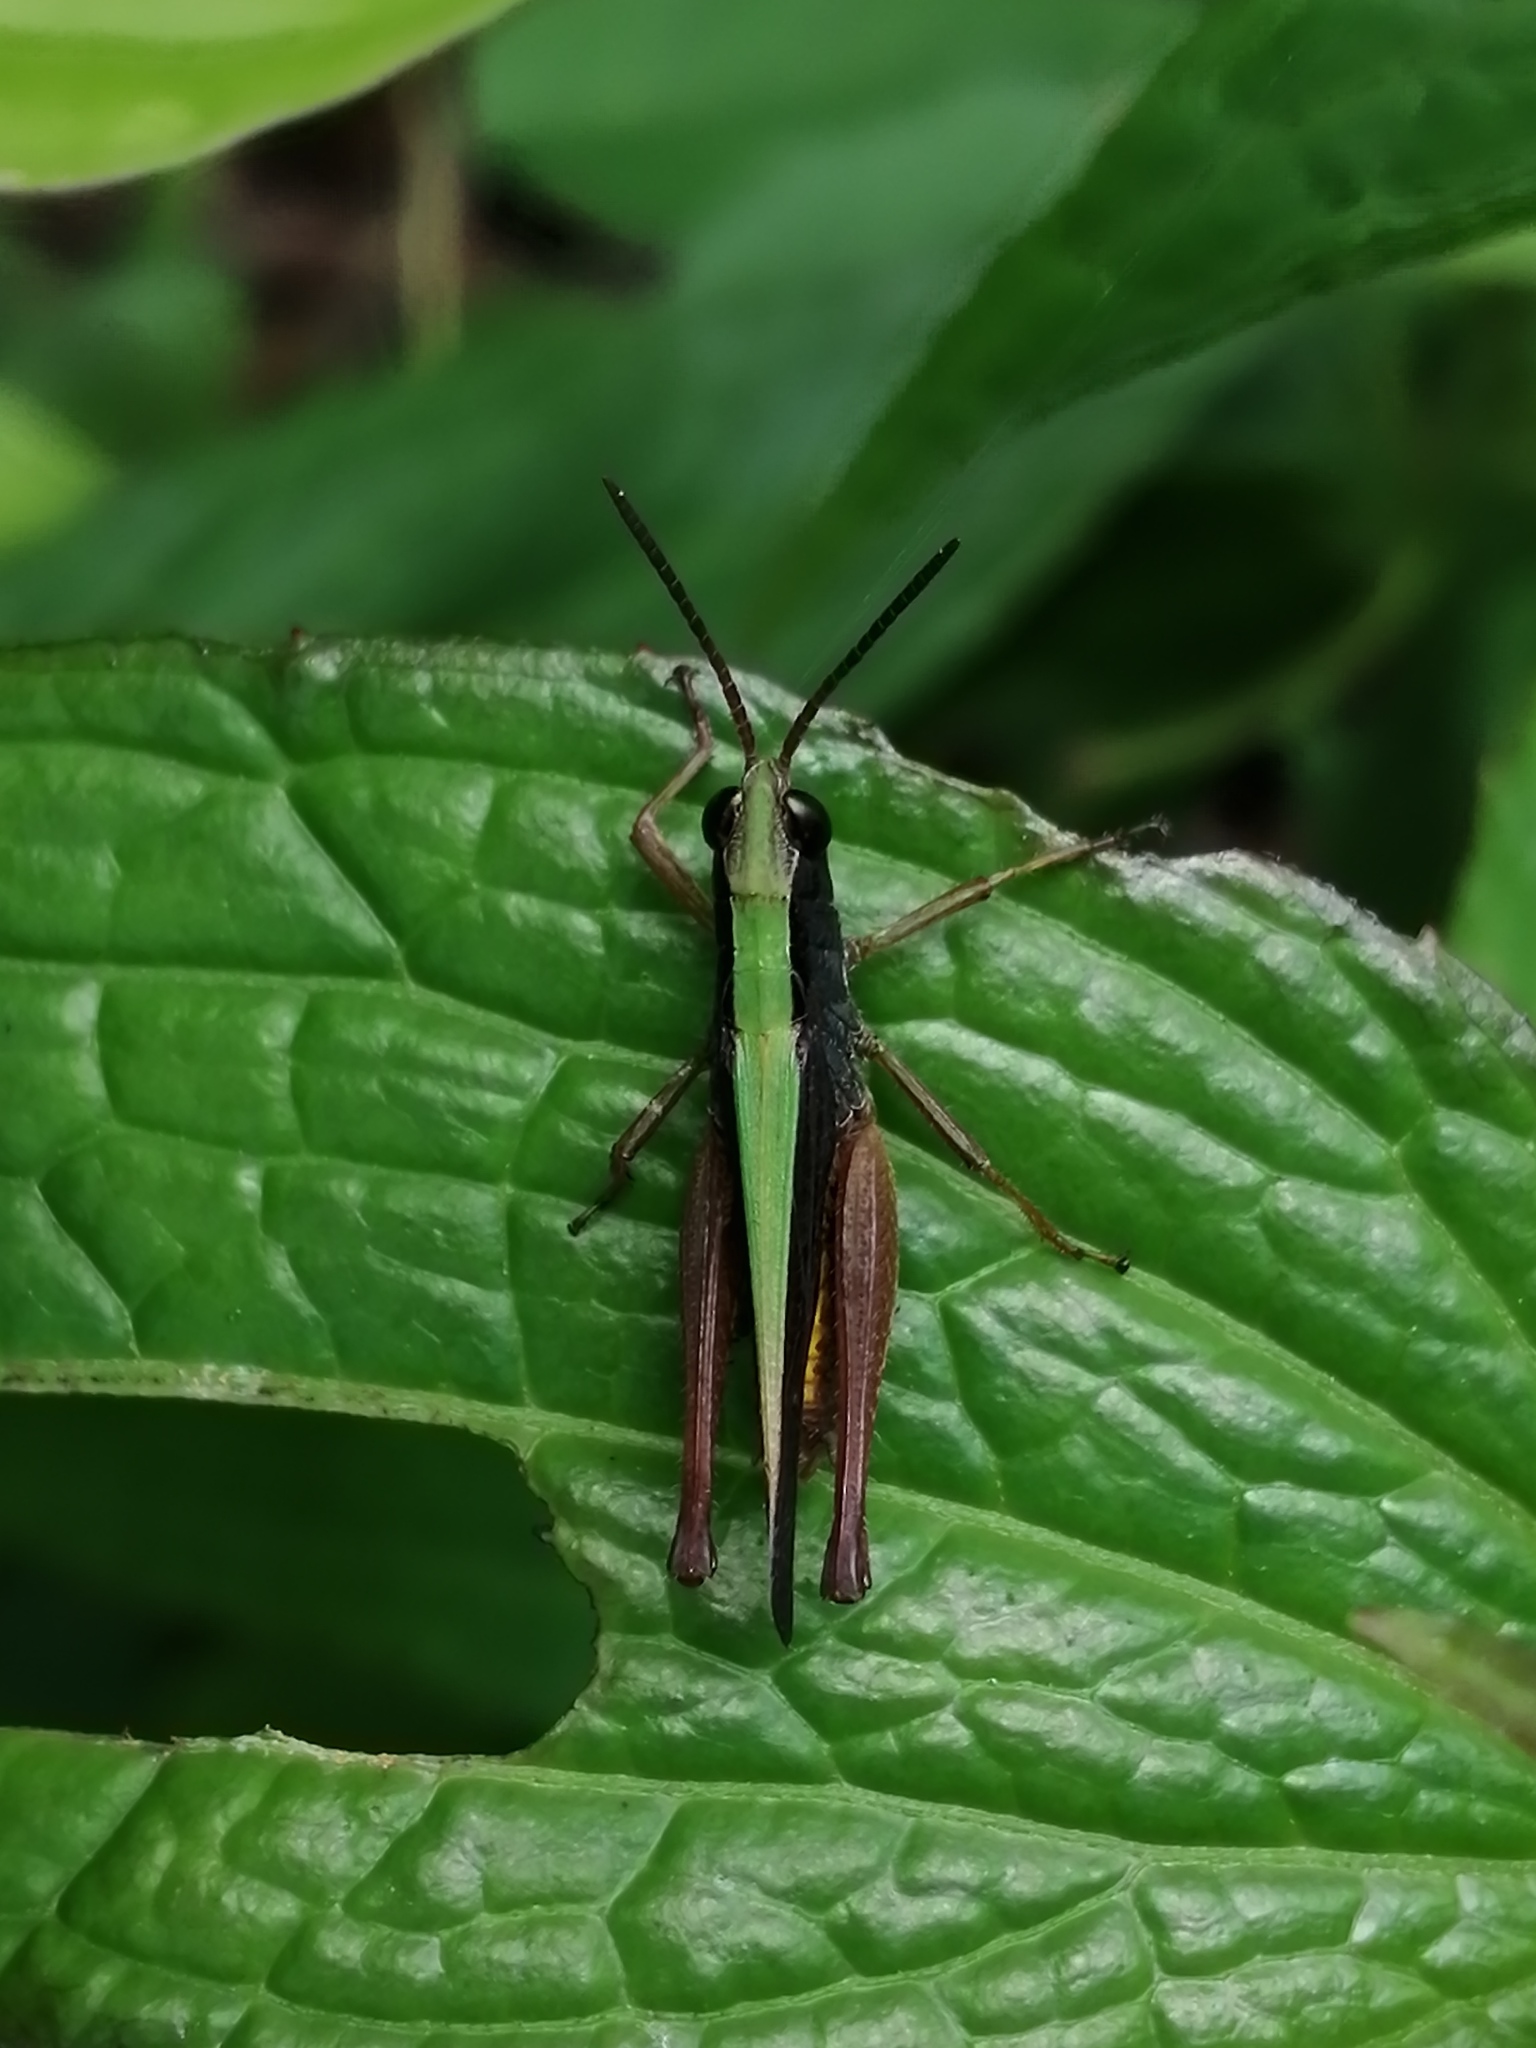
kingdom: Animalia
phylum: Arthropoda
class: Insecta
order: Orthoptera
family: Acrididae
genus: Orphula
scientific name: Orphula azteca
